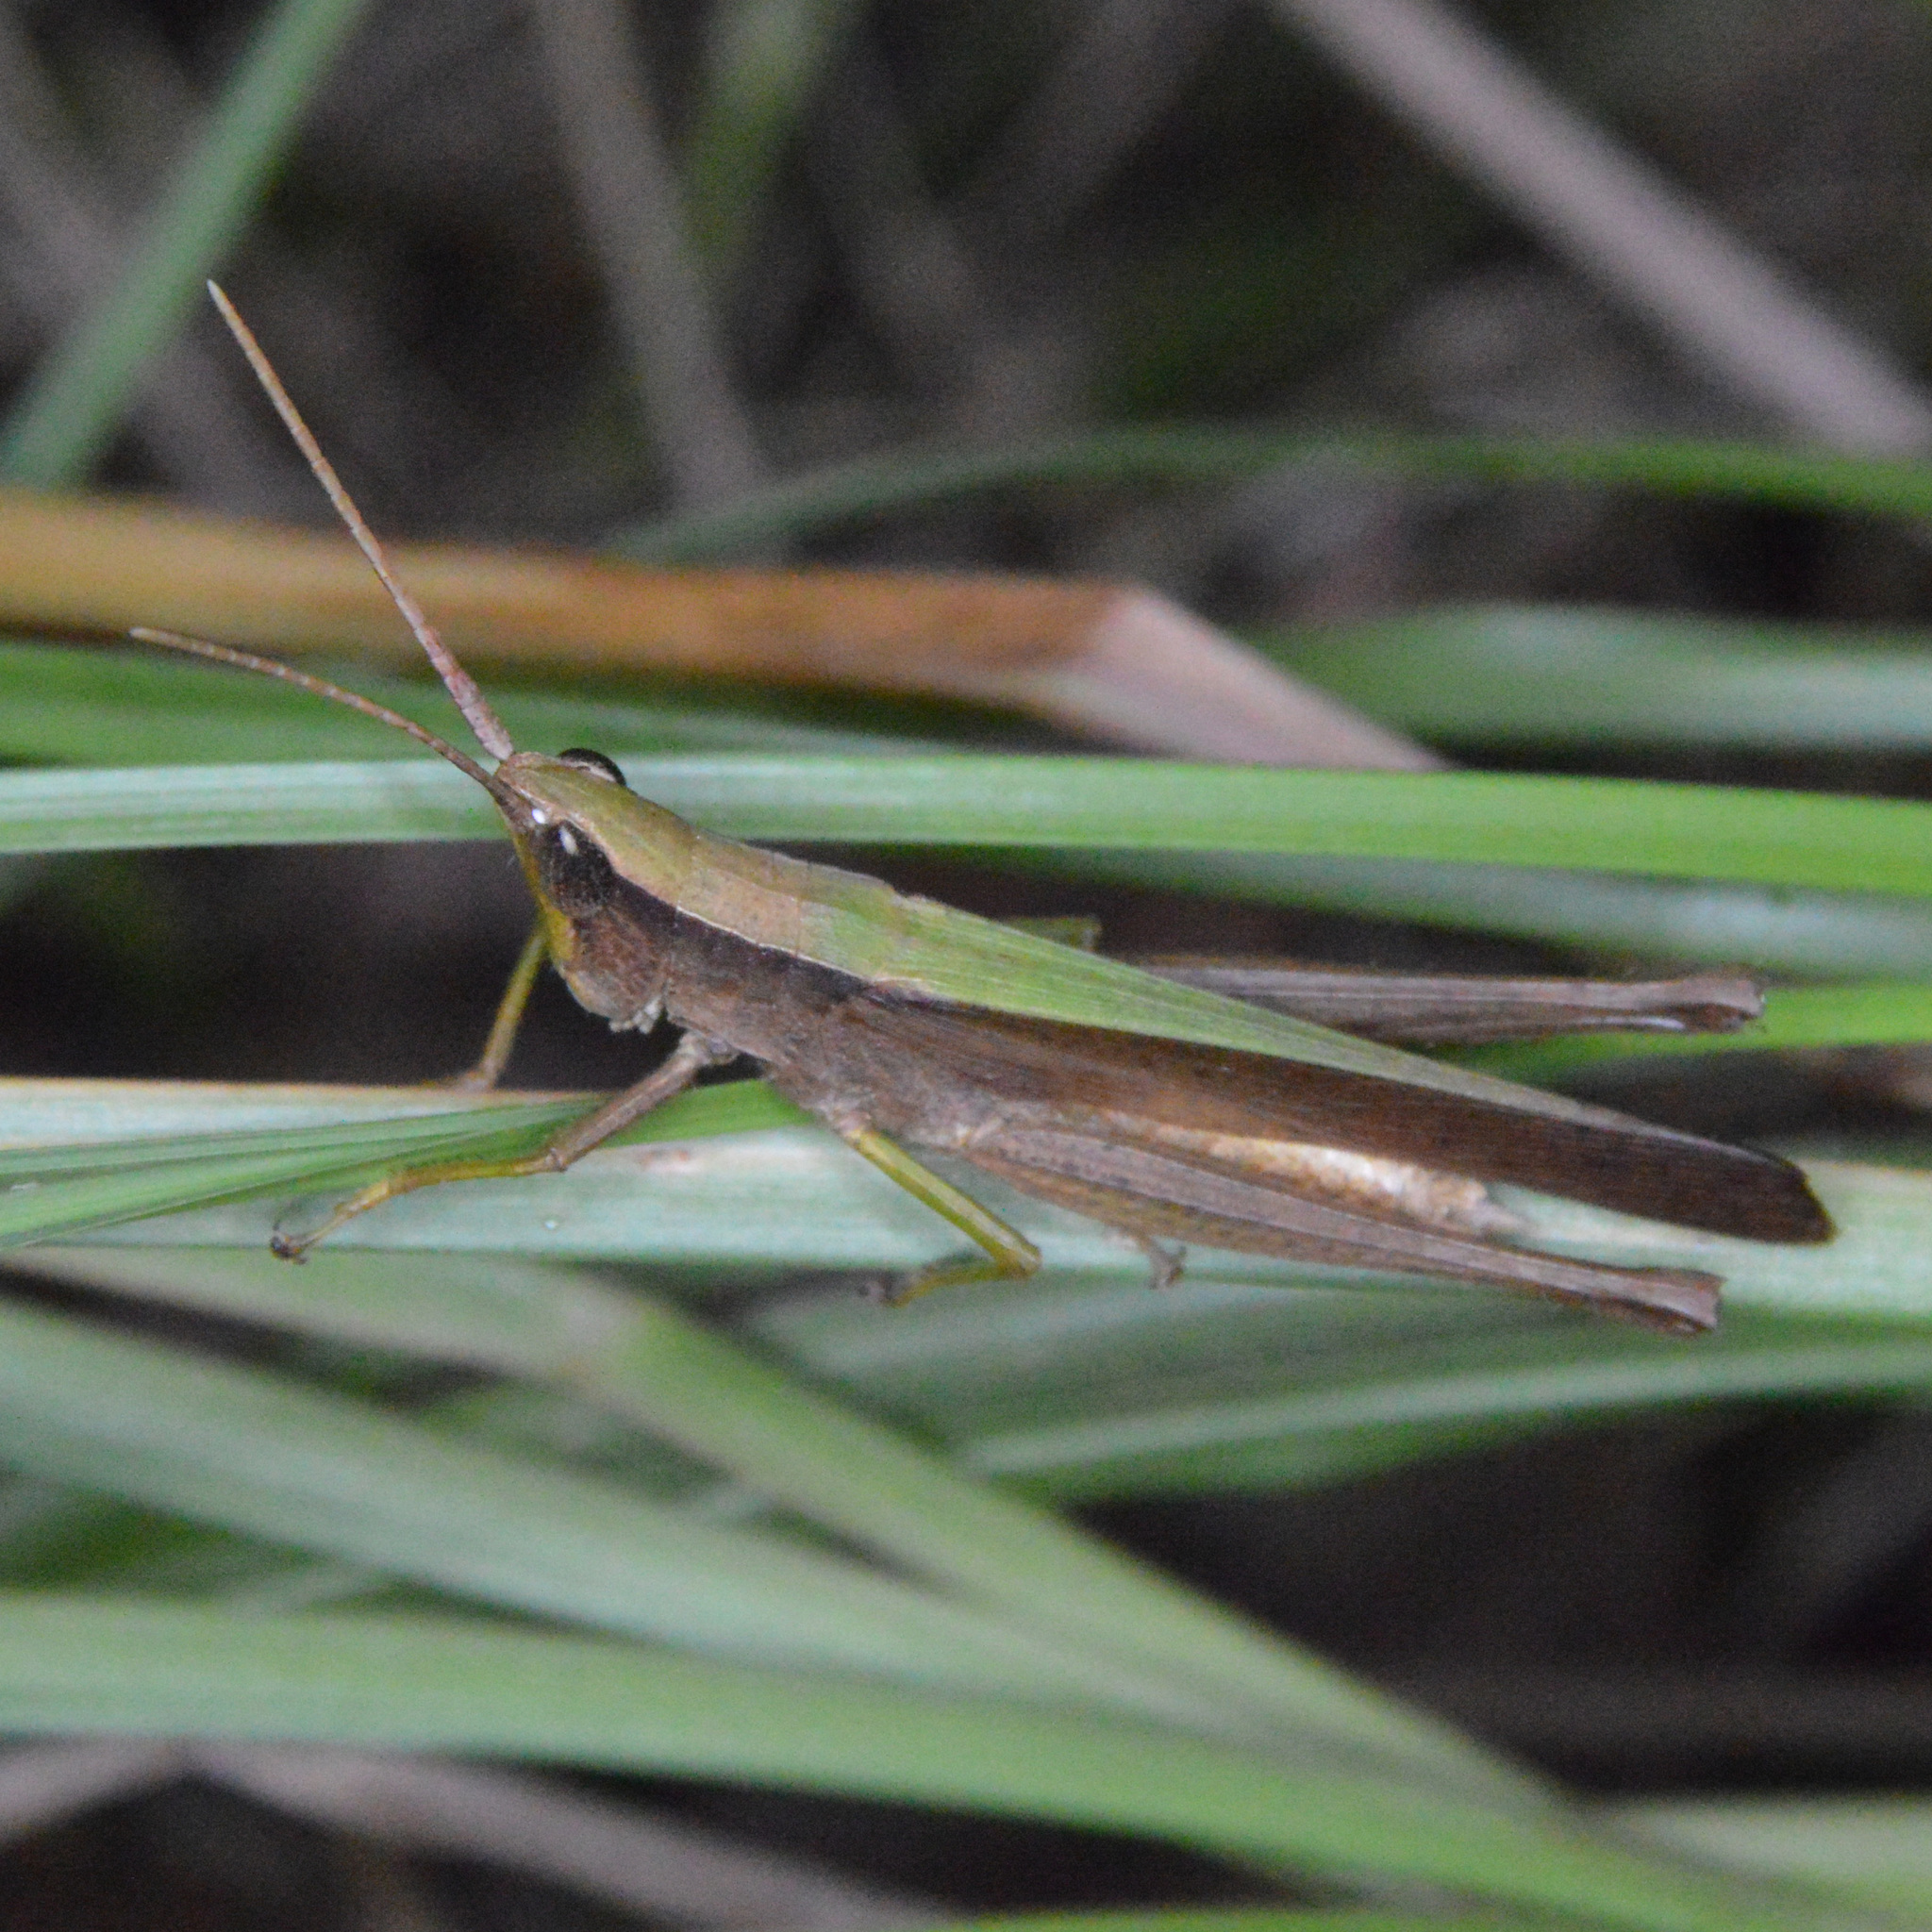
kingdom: Animalia
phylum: Arthropoda
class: Insecta
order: Orthoptera
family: Acrididae
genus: Metaleptea
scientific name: Metaleptea brevicornis
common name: Clipped-wing grasshopper
